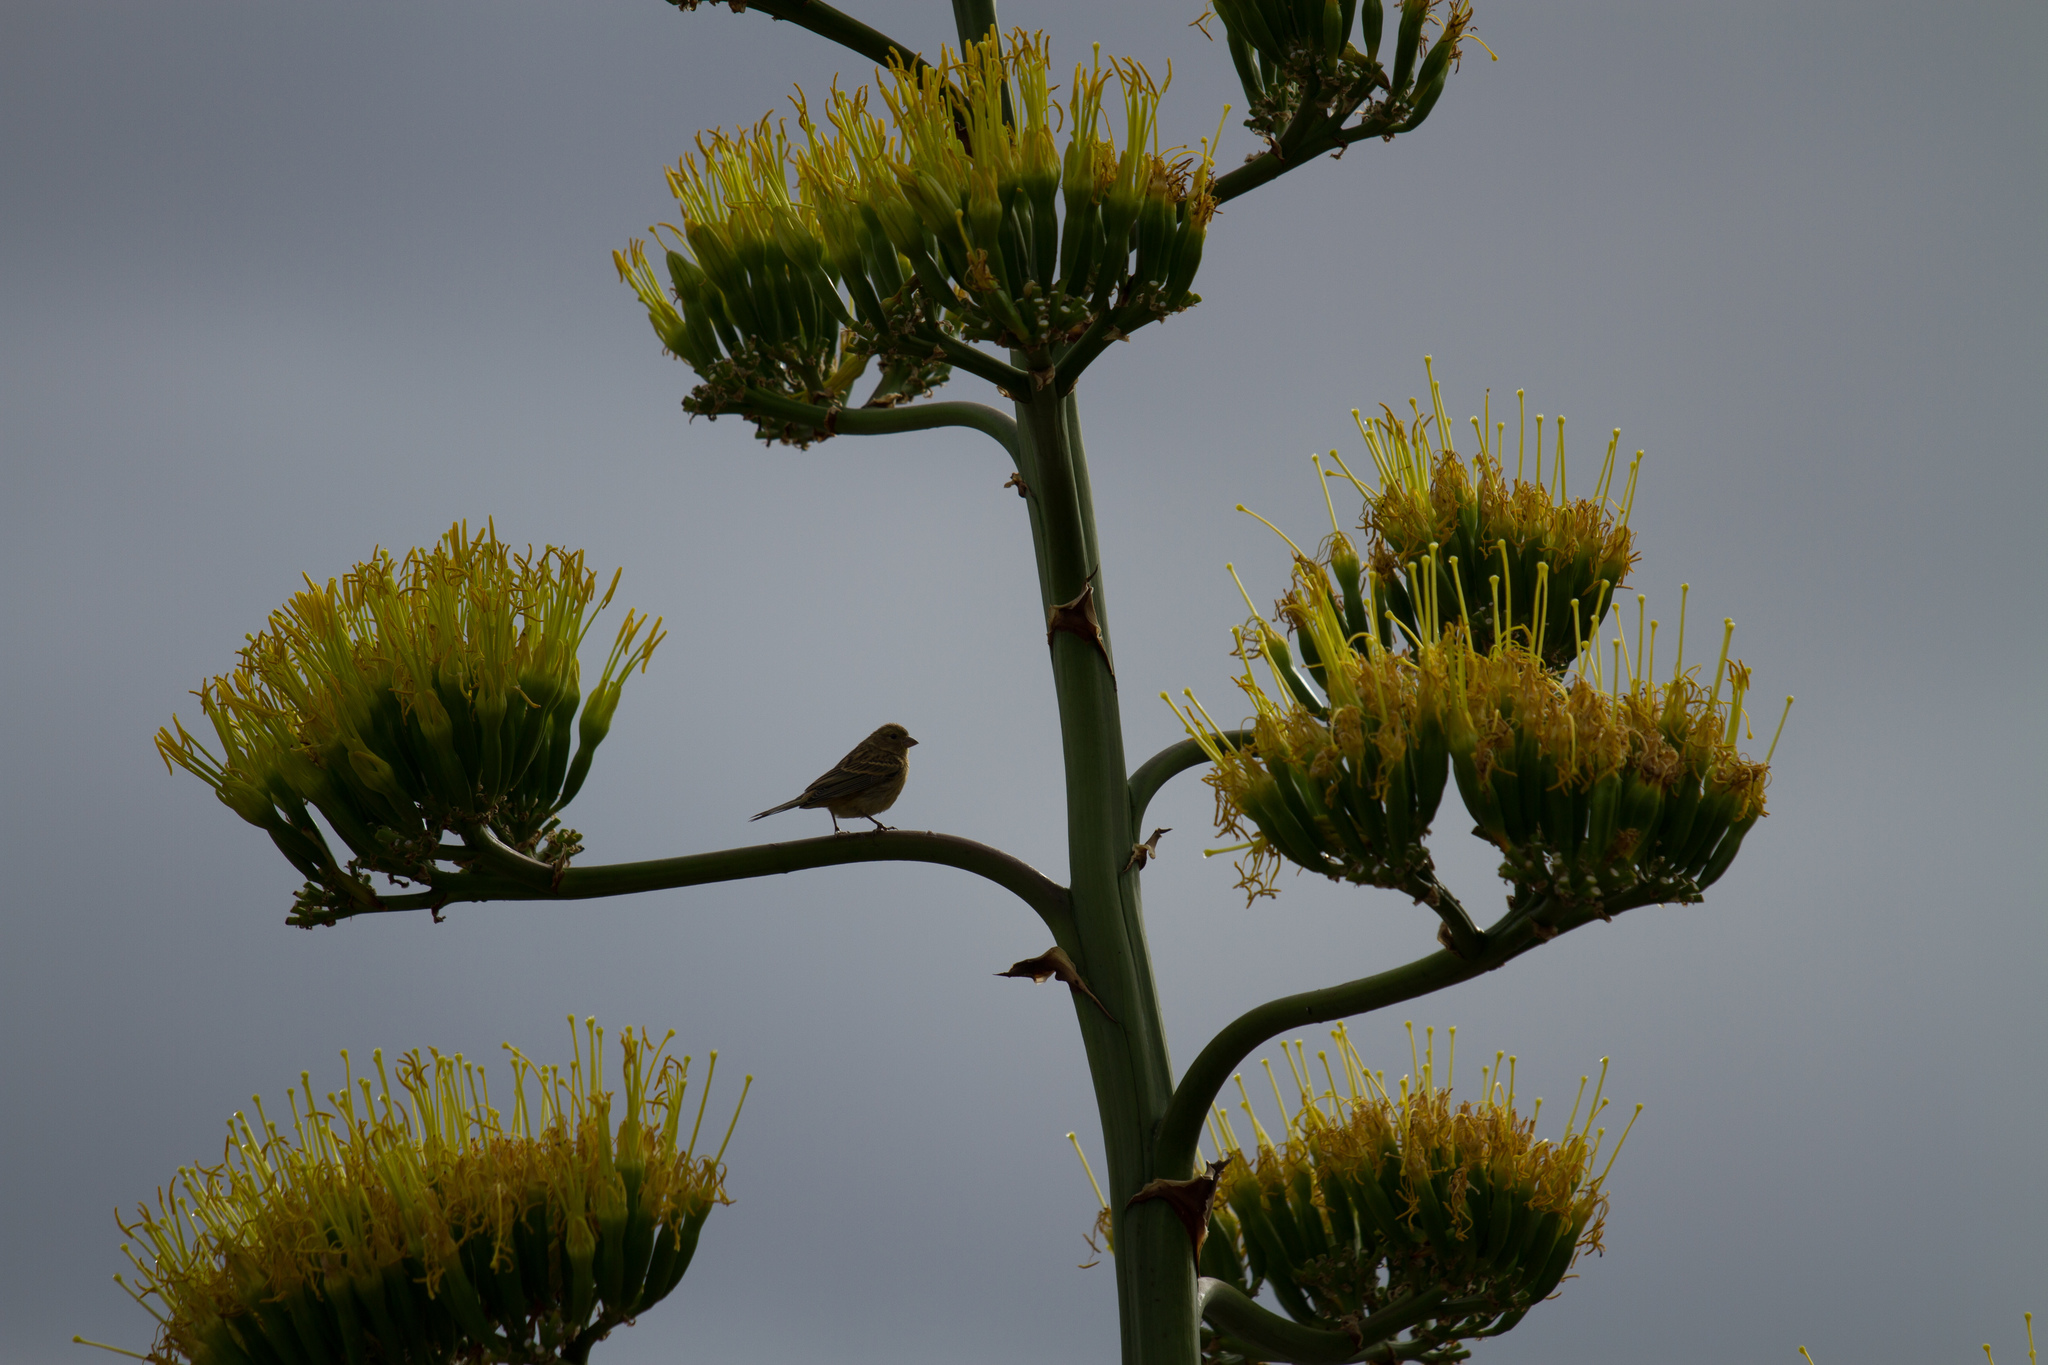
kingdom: Animalia
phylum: Chordata
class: Aves
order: Passeriformes
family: Fringillidae
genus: Serinus
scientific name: Serinus canaria
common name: Atlantic canary
